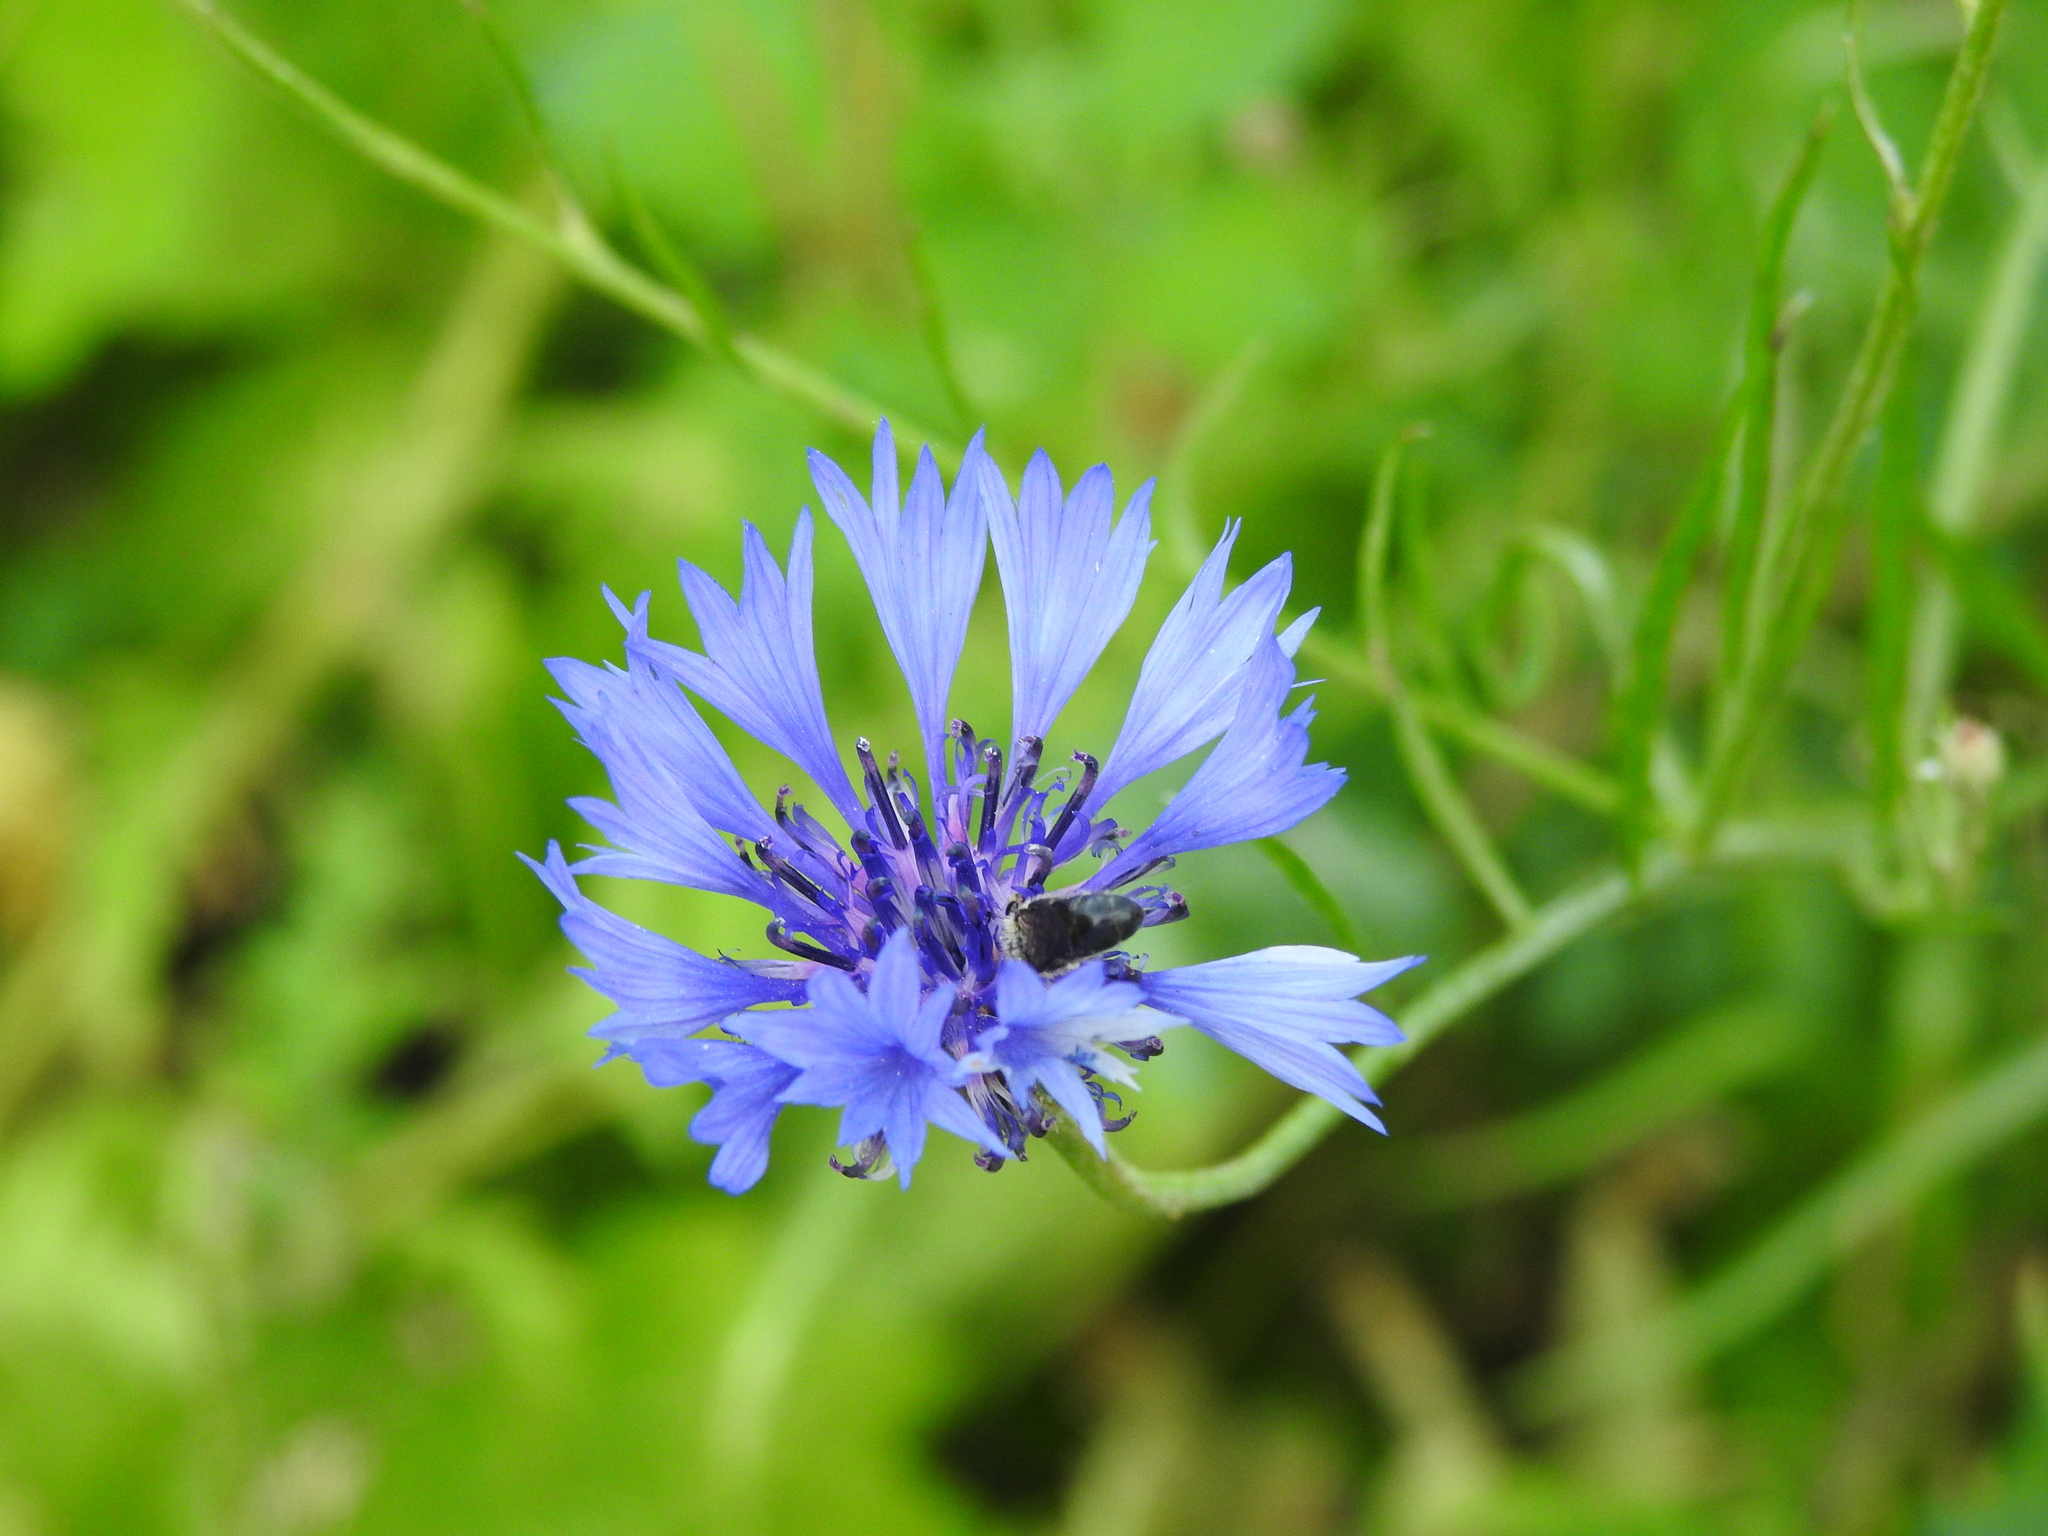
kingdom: Plantae
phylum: Tracheophyta
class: Magnoliopsida
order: Asterales
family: Asteraceae
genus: Centaurea
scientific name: Centaurea cyanus
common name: Cornflower
